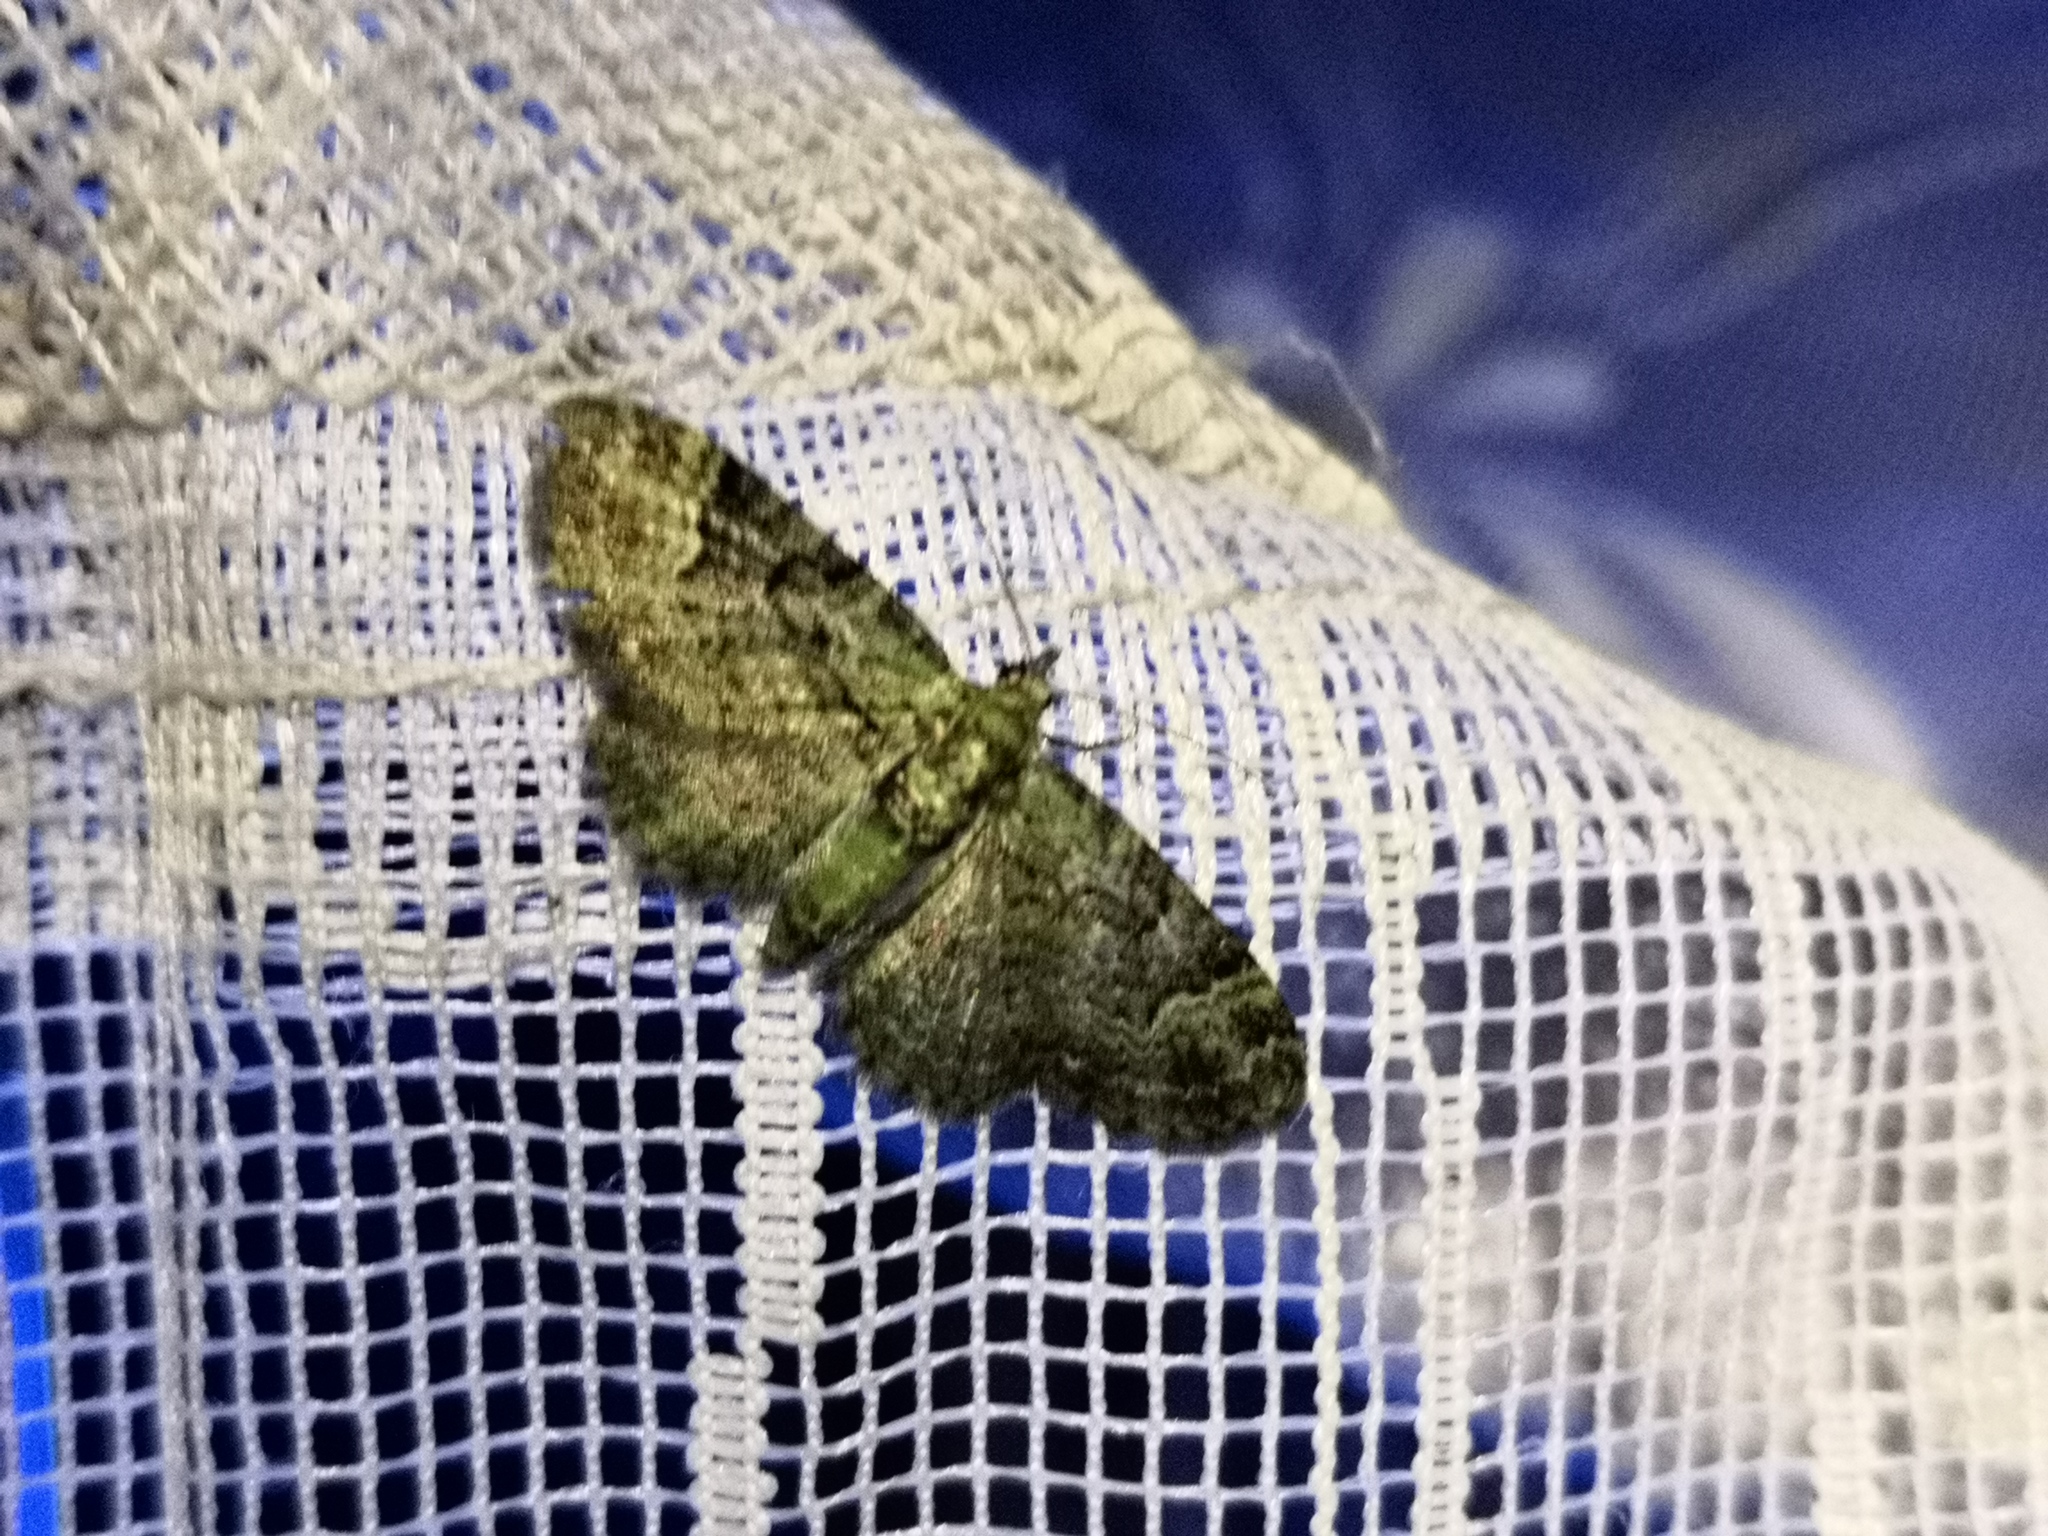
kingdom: Animalia
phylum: Arthropoda
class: Insecta
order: Lepidoptera
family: Geometridae
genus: Pasiphila
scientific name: Pasiphila rectangulata
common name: Green pug
